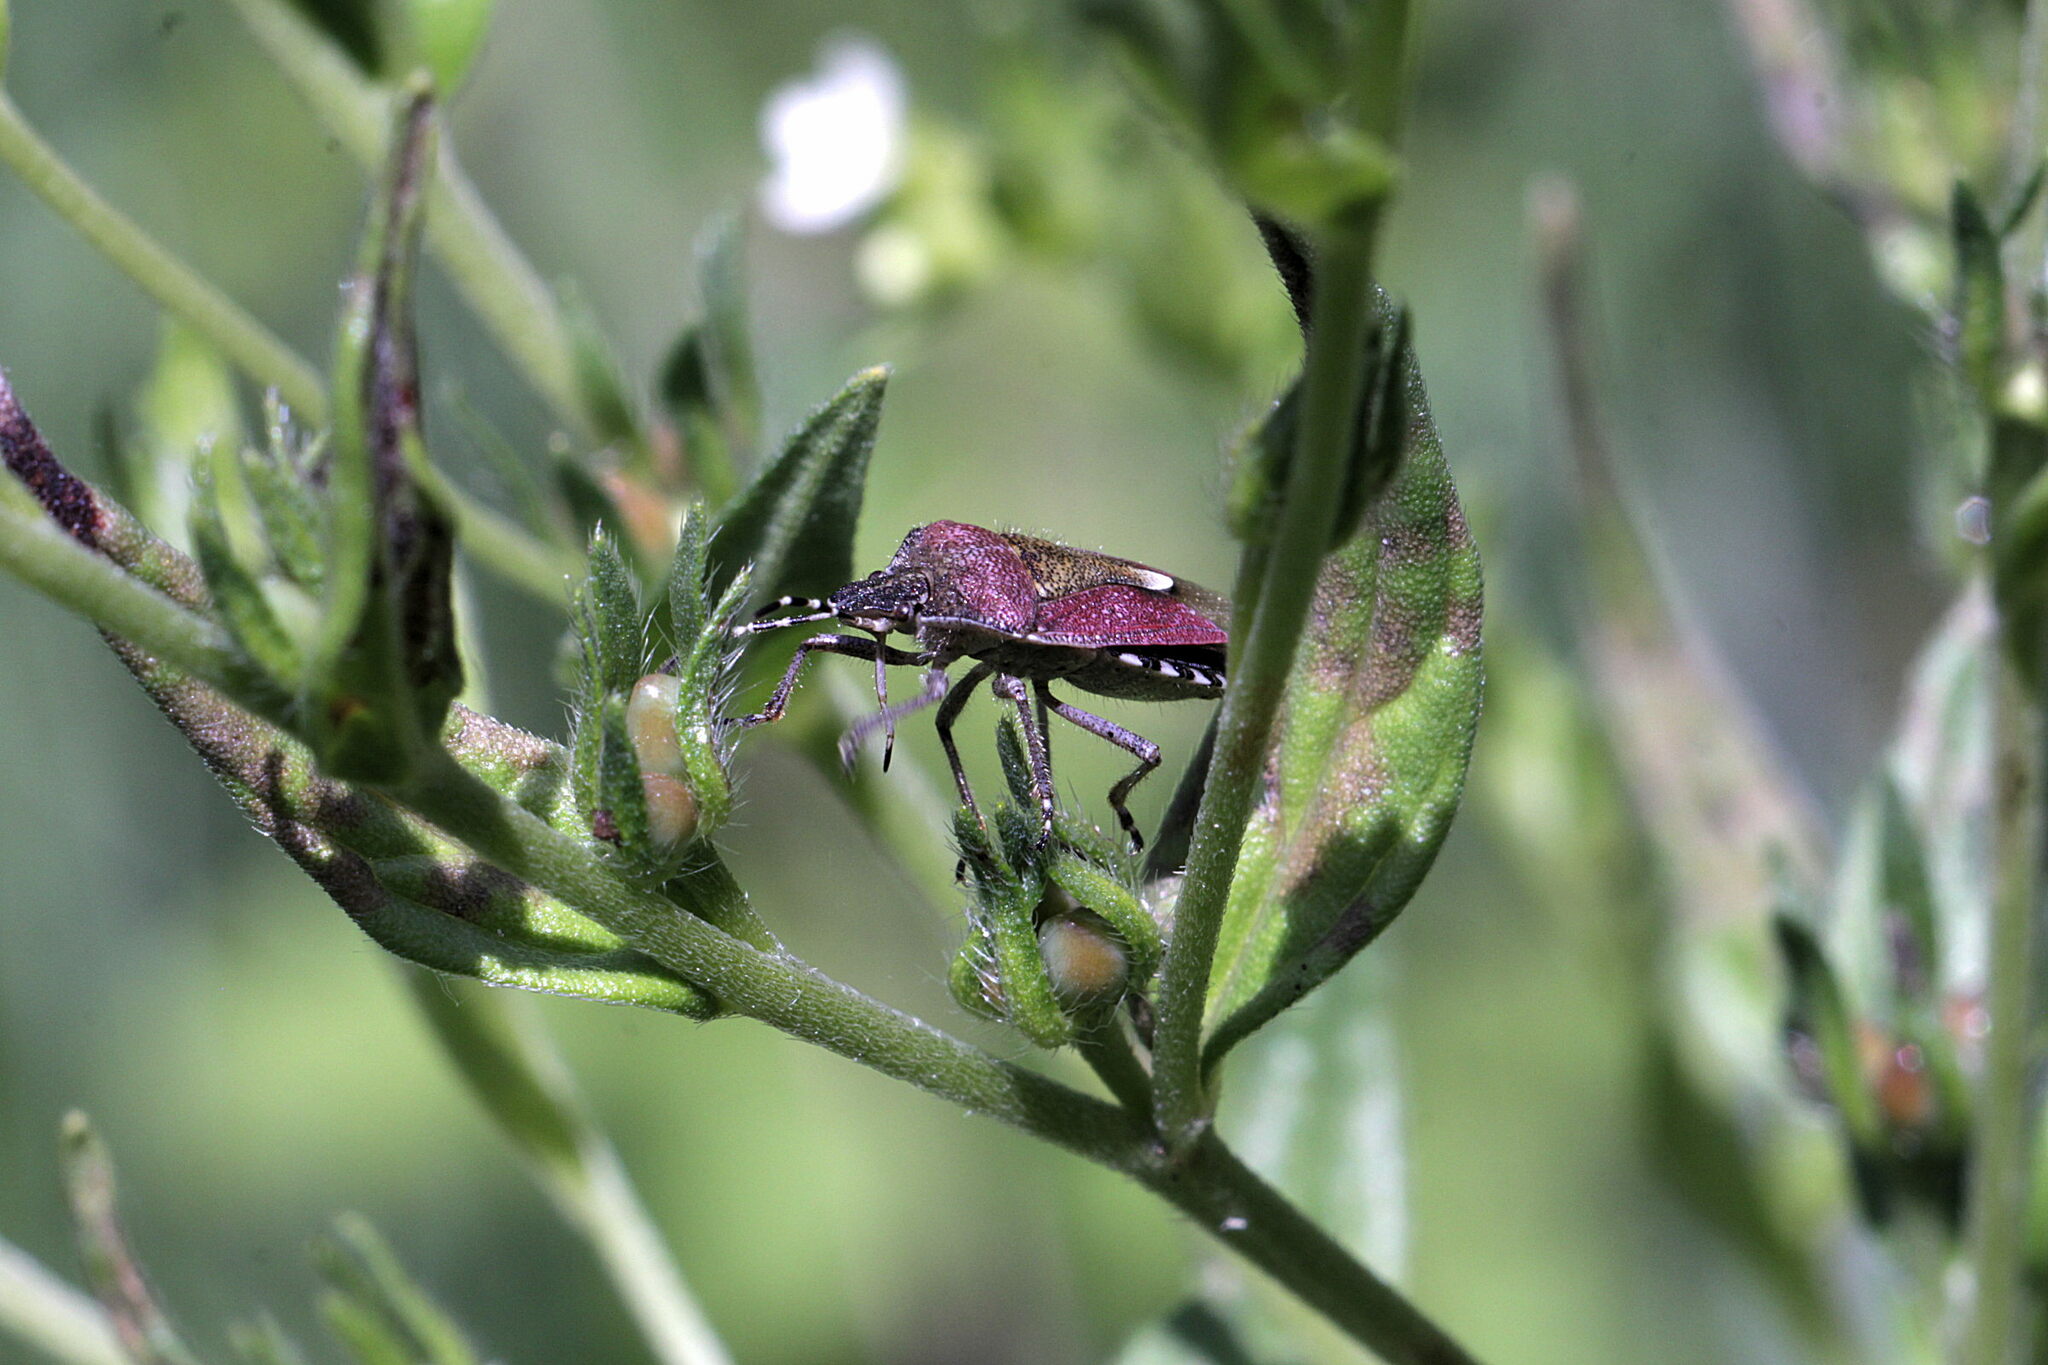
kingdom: Animalia
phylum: Arthropoda
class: Insecta
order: Hemiptera
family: Pentatomidae
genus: Dolycoris
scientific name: Dolycoris baccarum
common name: Sloe bug
